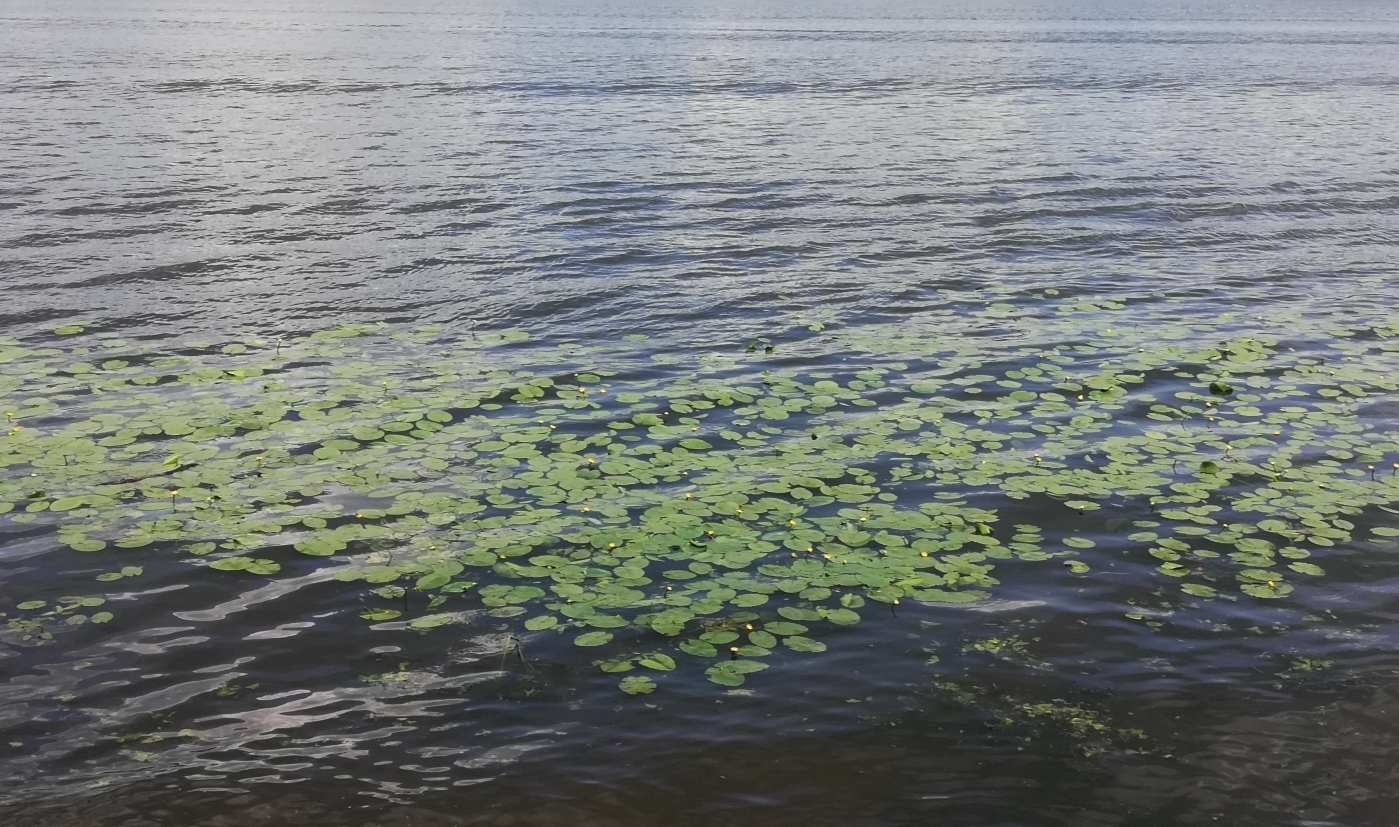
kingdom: Plantae
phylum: Tracheophyta
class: Magnoliopsida
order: Nymphaeales
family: Nymphaeaceae
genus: Nuphar
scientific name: Nuphar lutea
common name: Yellow water-lily
